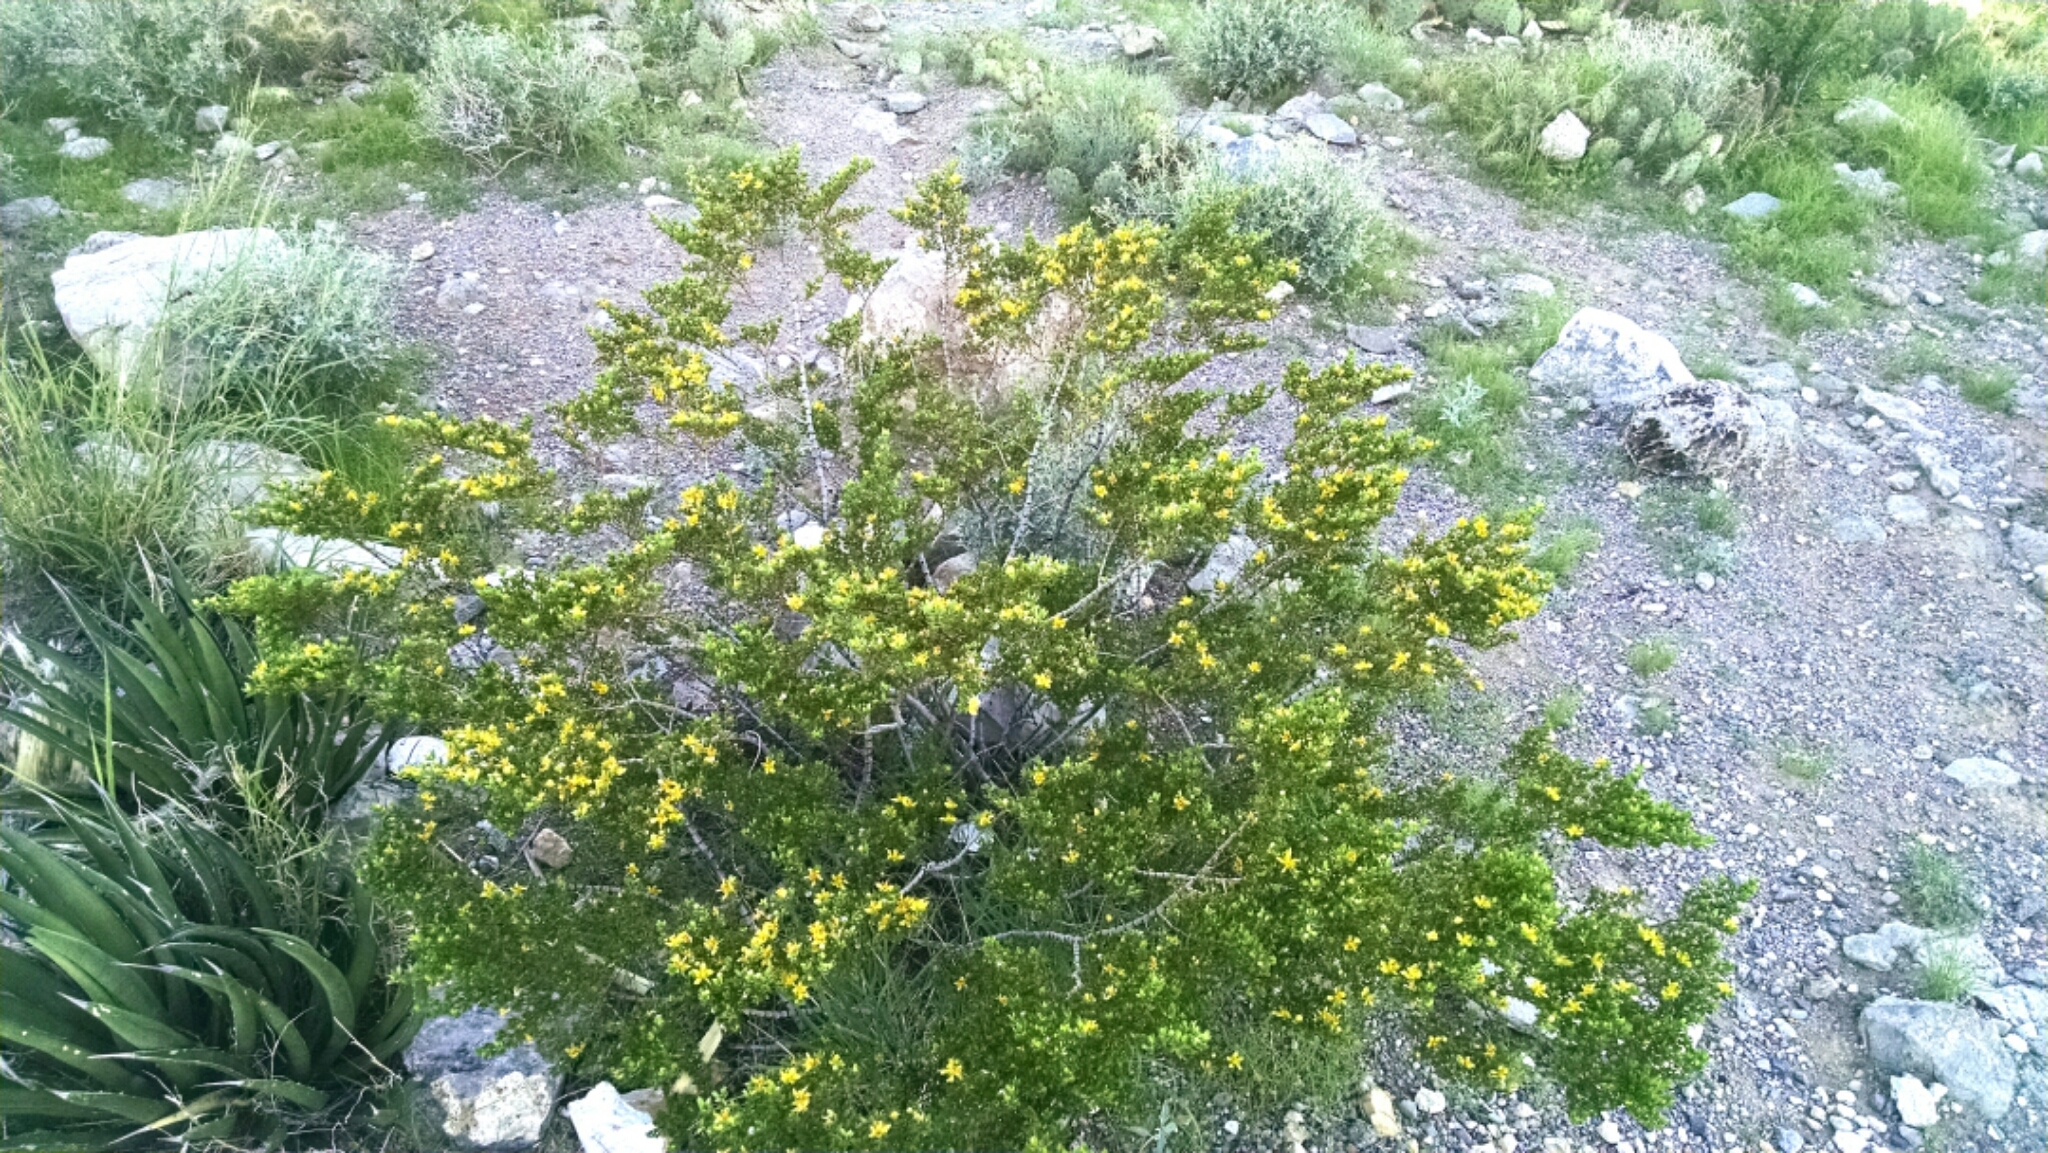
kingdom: Plantae
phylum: Tracheophyta
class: Magnoliopsida
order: Zygophyllales
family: Zygophyllaceae
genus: Larrea
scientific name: Larrea tridentata
